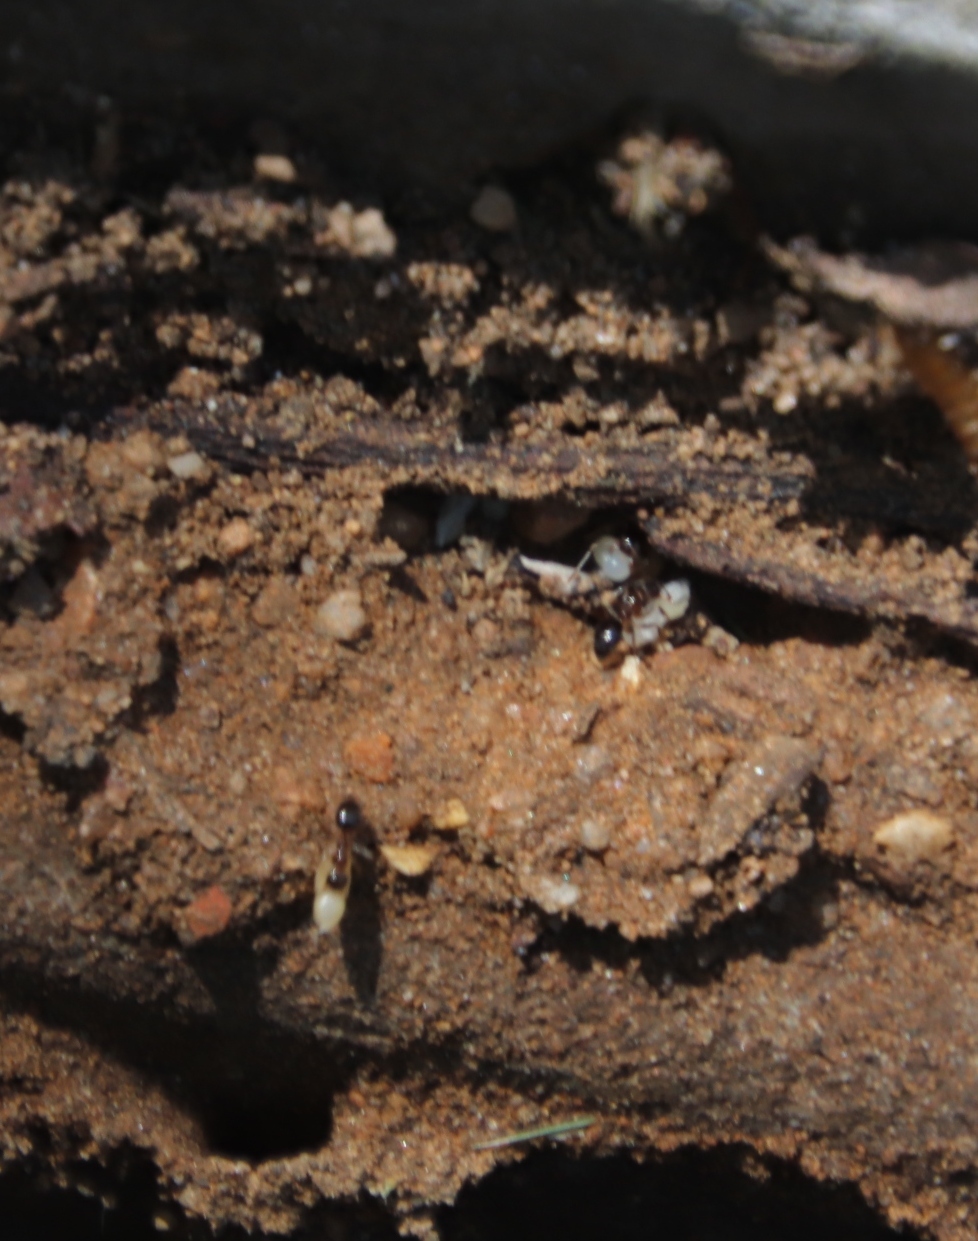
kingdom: Animalia
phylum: Arthropoda
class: Insecta
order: Hymenoptera
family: Formicidae
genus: Tetramorium
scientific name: Tetramorium sericeiventre
